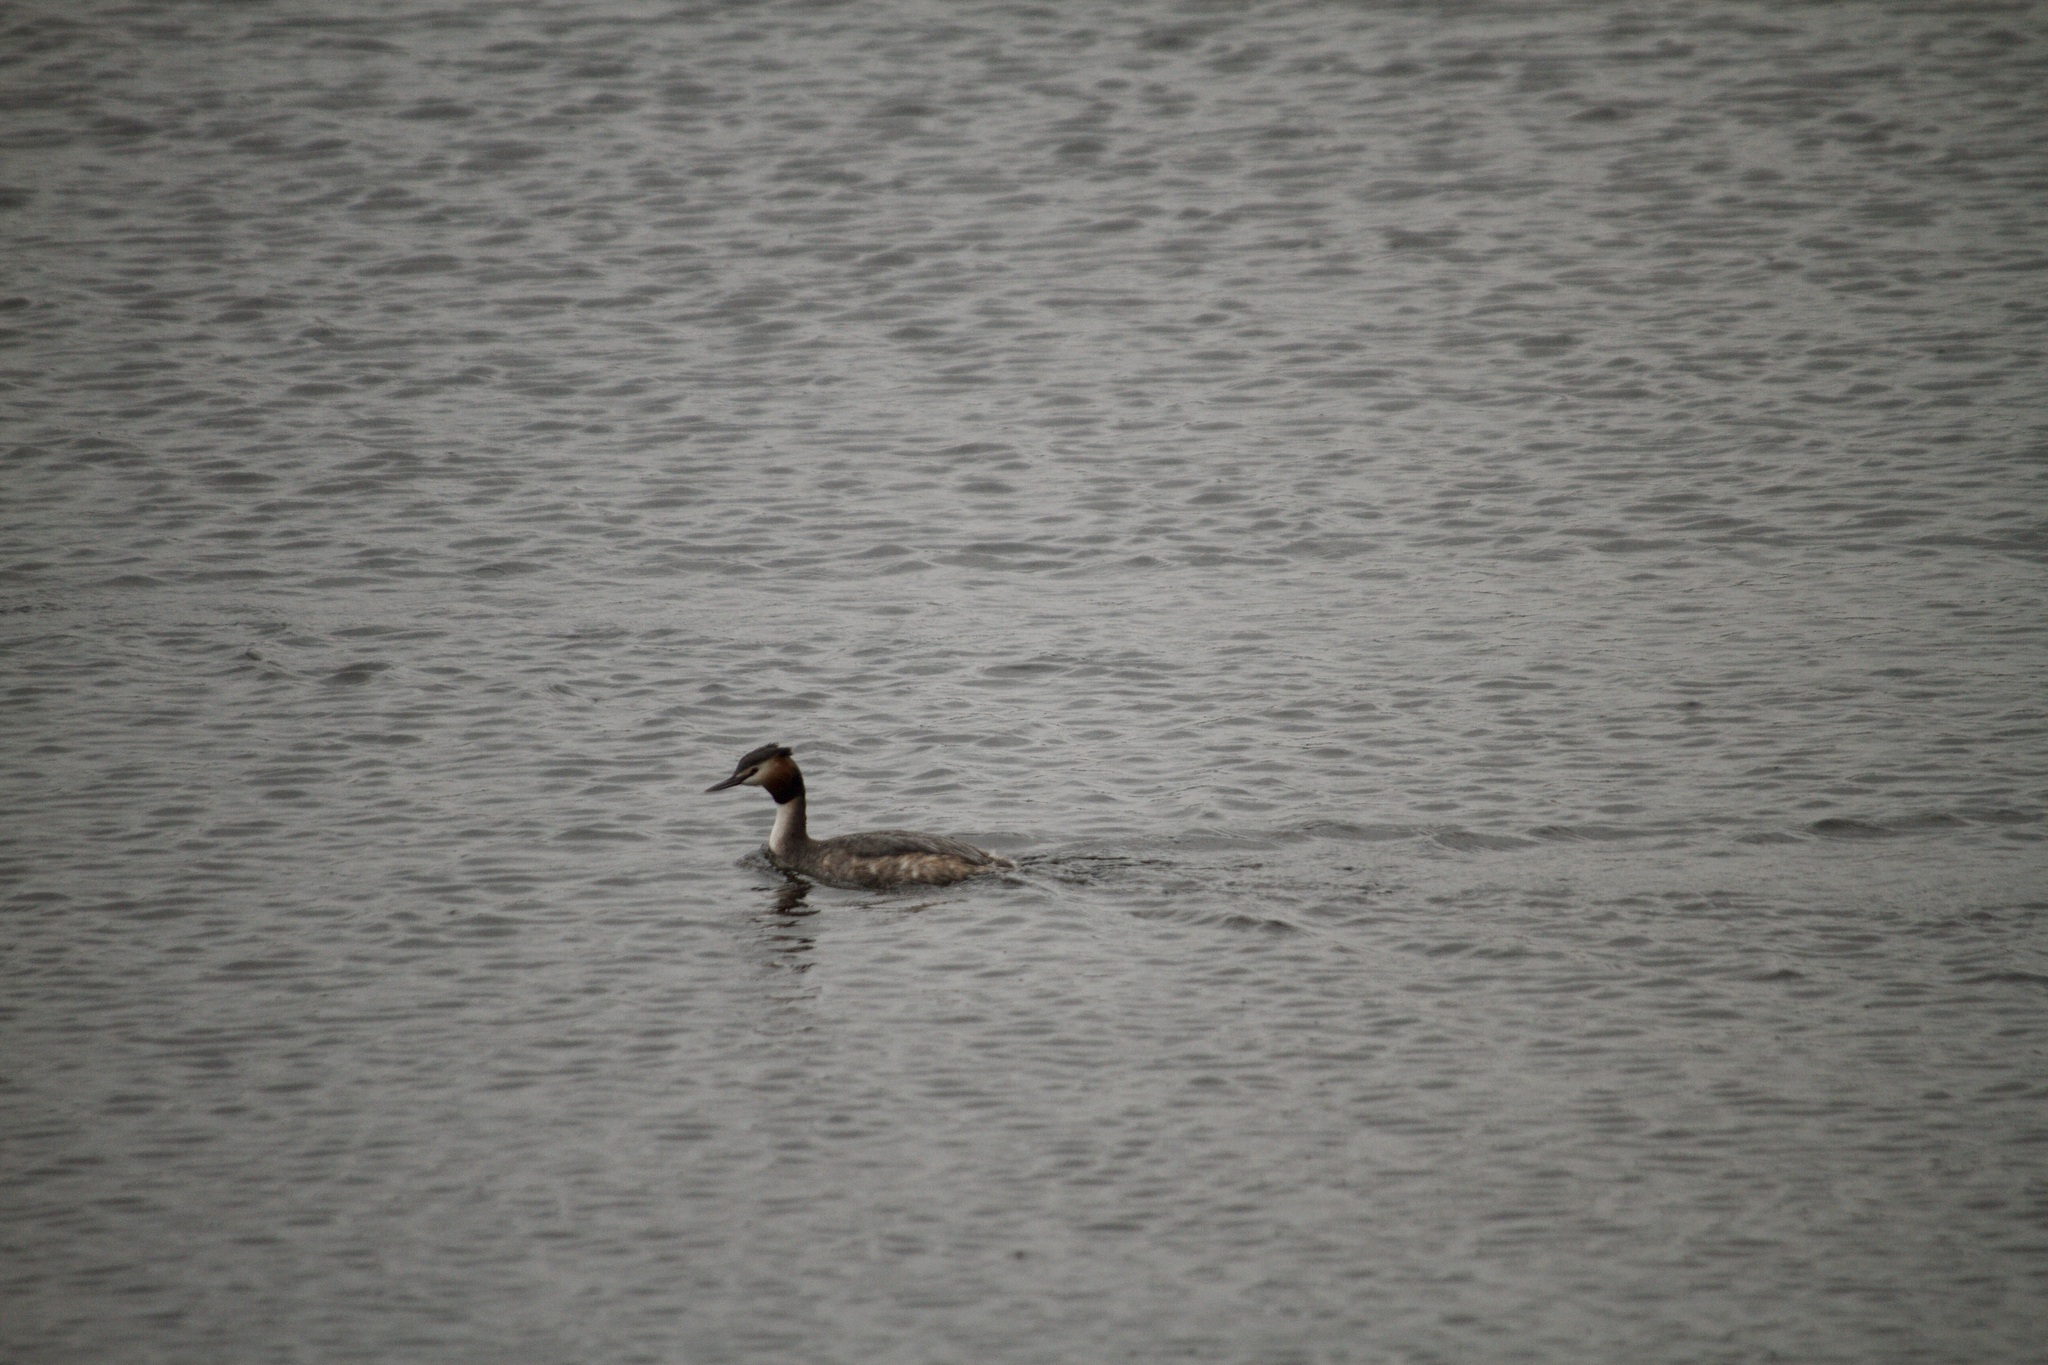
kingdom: Animalia
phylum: Chordata
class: Aves
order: Podicipediformes
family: Podicipedidae
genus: Podiceps
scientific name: Podiceps cristatus
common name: Great crested grebe
